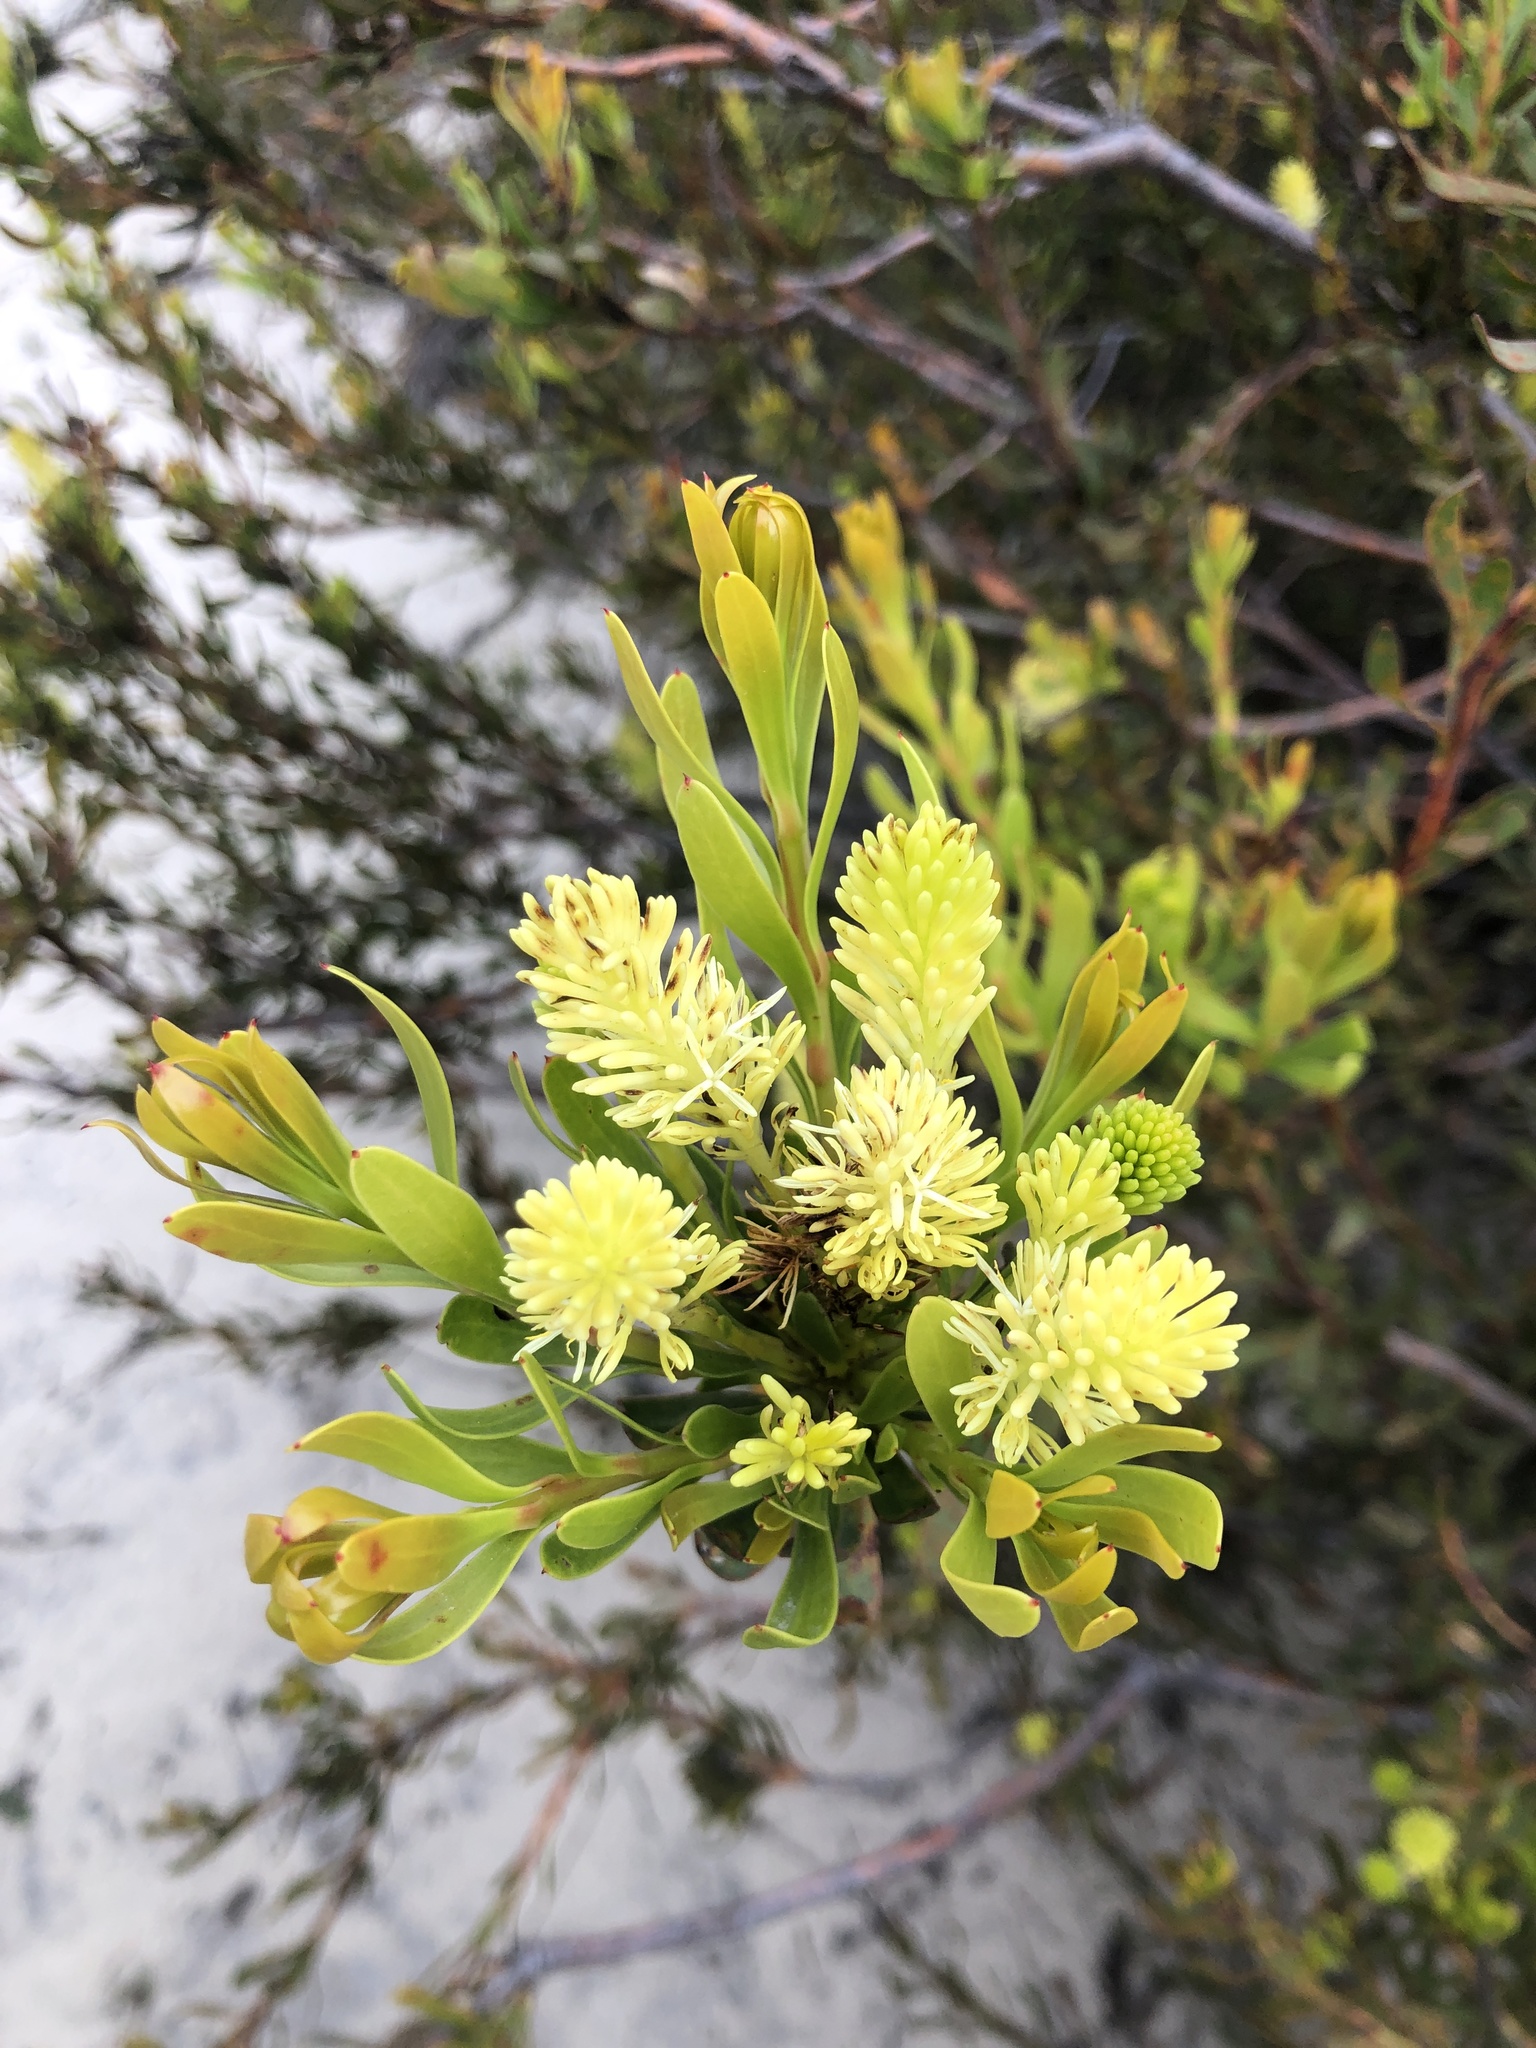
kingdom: Plantae
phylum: Tracheophyta
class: Magnoliopsida
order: Proteales
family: Proteaceae
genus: Aulax
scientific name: Aulax umbellata
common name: Broad-leaf featherbush
